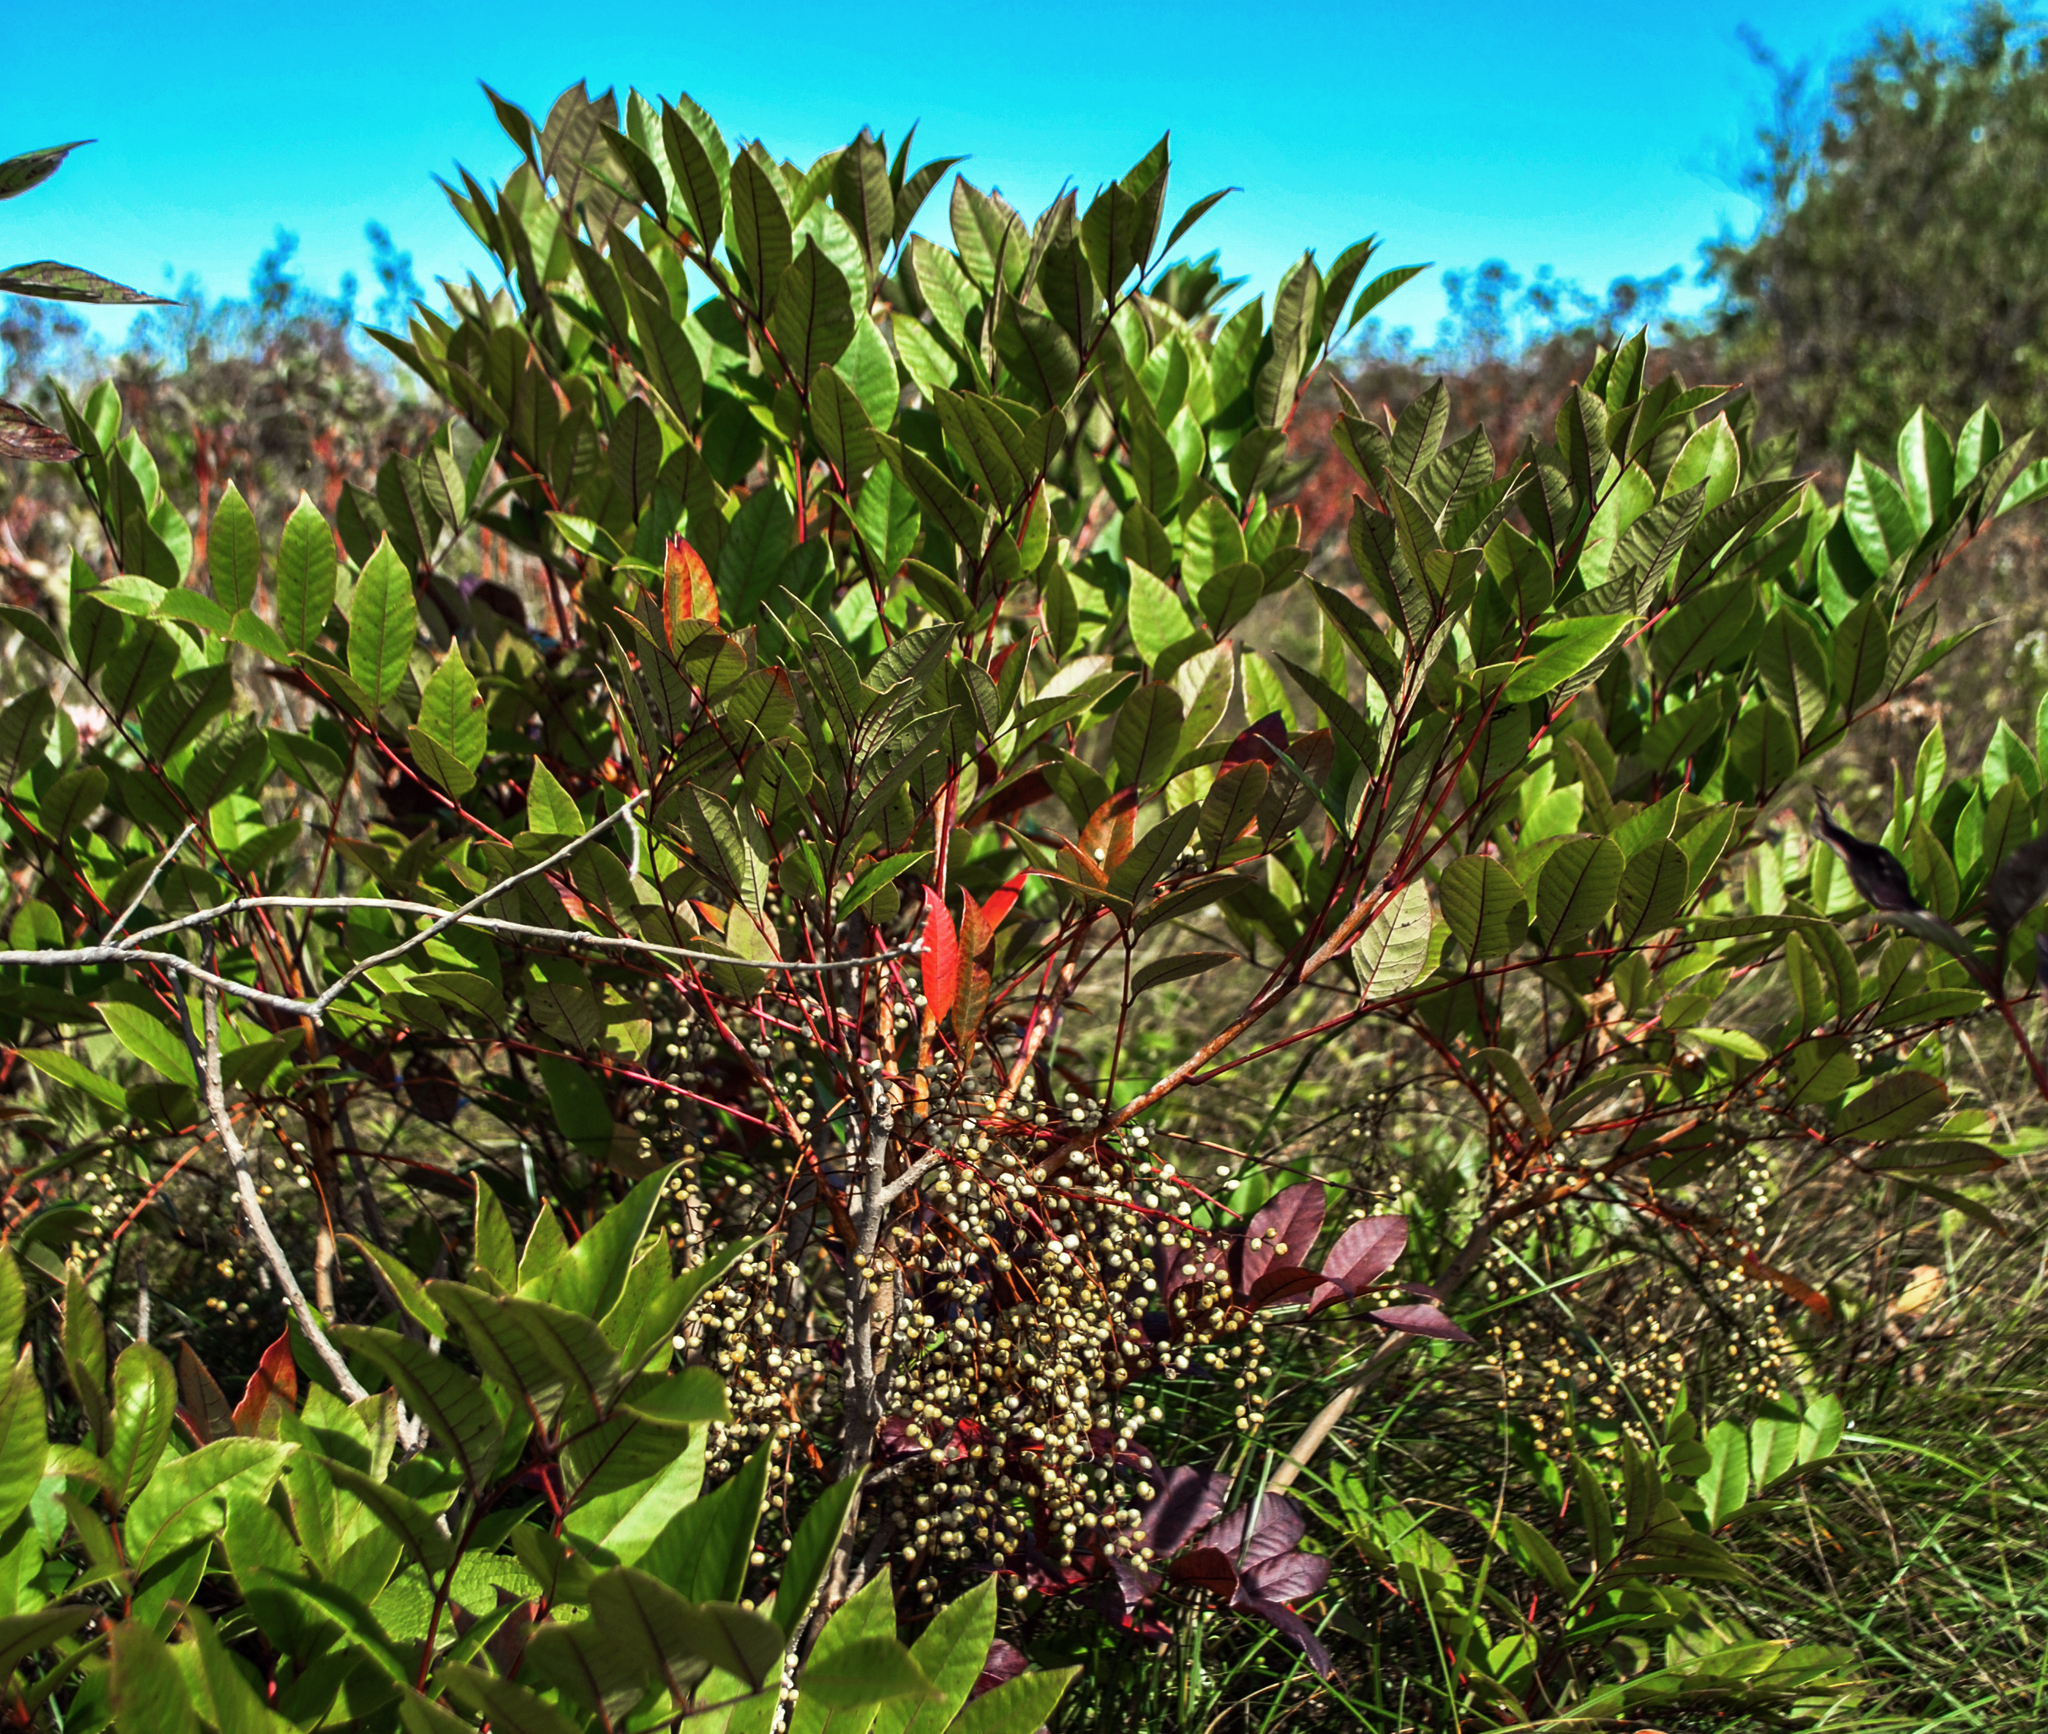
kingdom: Plantae
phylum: Tracheophyta
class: Magnoliopsida
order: Sapindales
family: Anacardiaceae
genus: Toxicodendron
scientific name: Toxicodendron vernix
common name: Poison sumac
